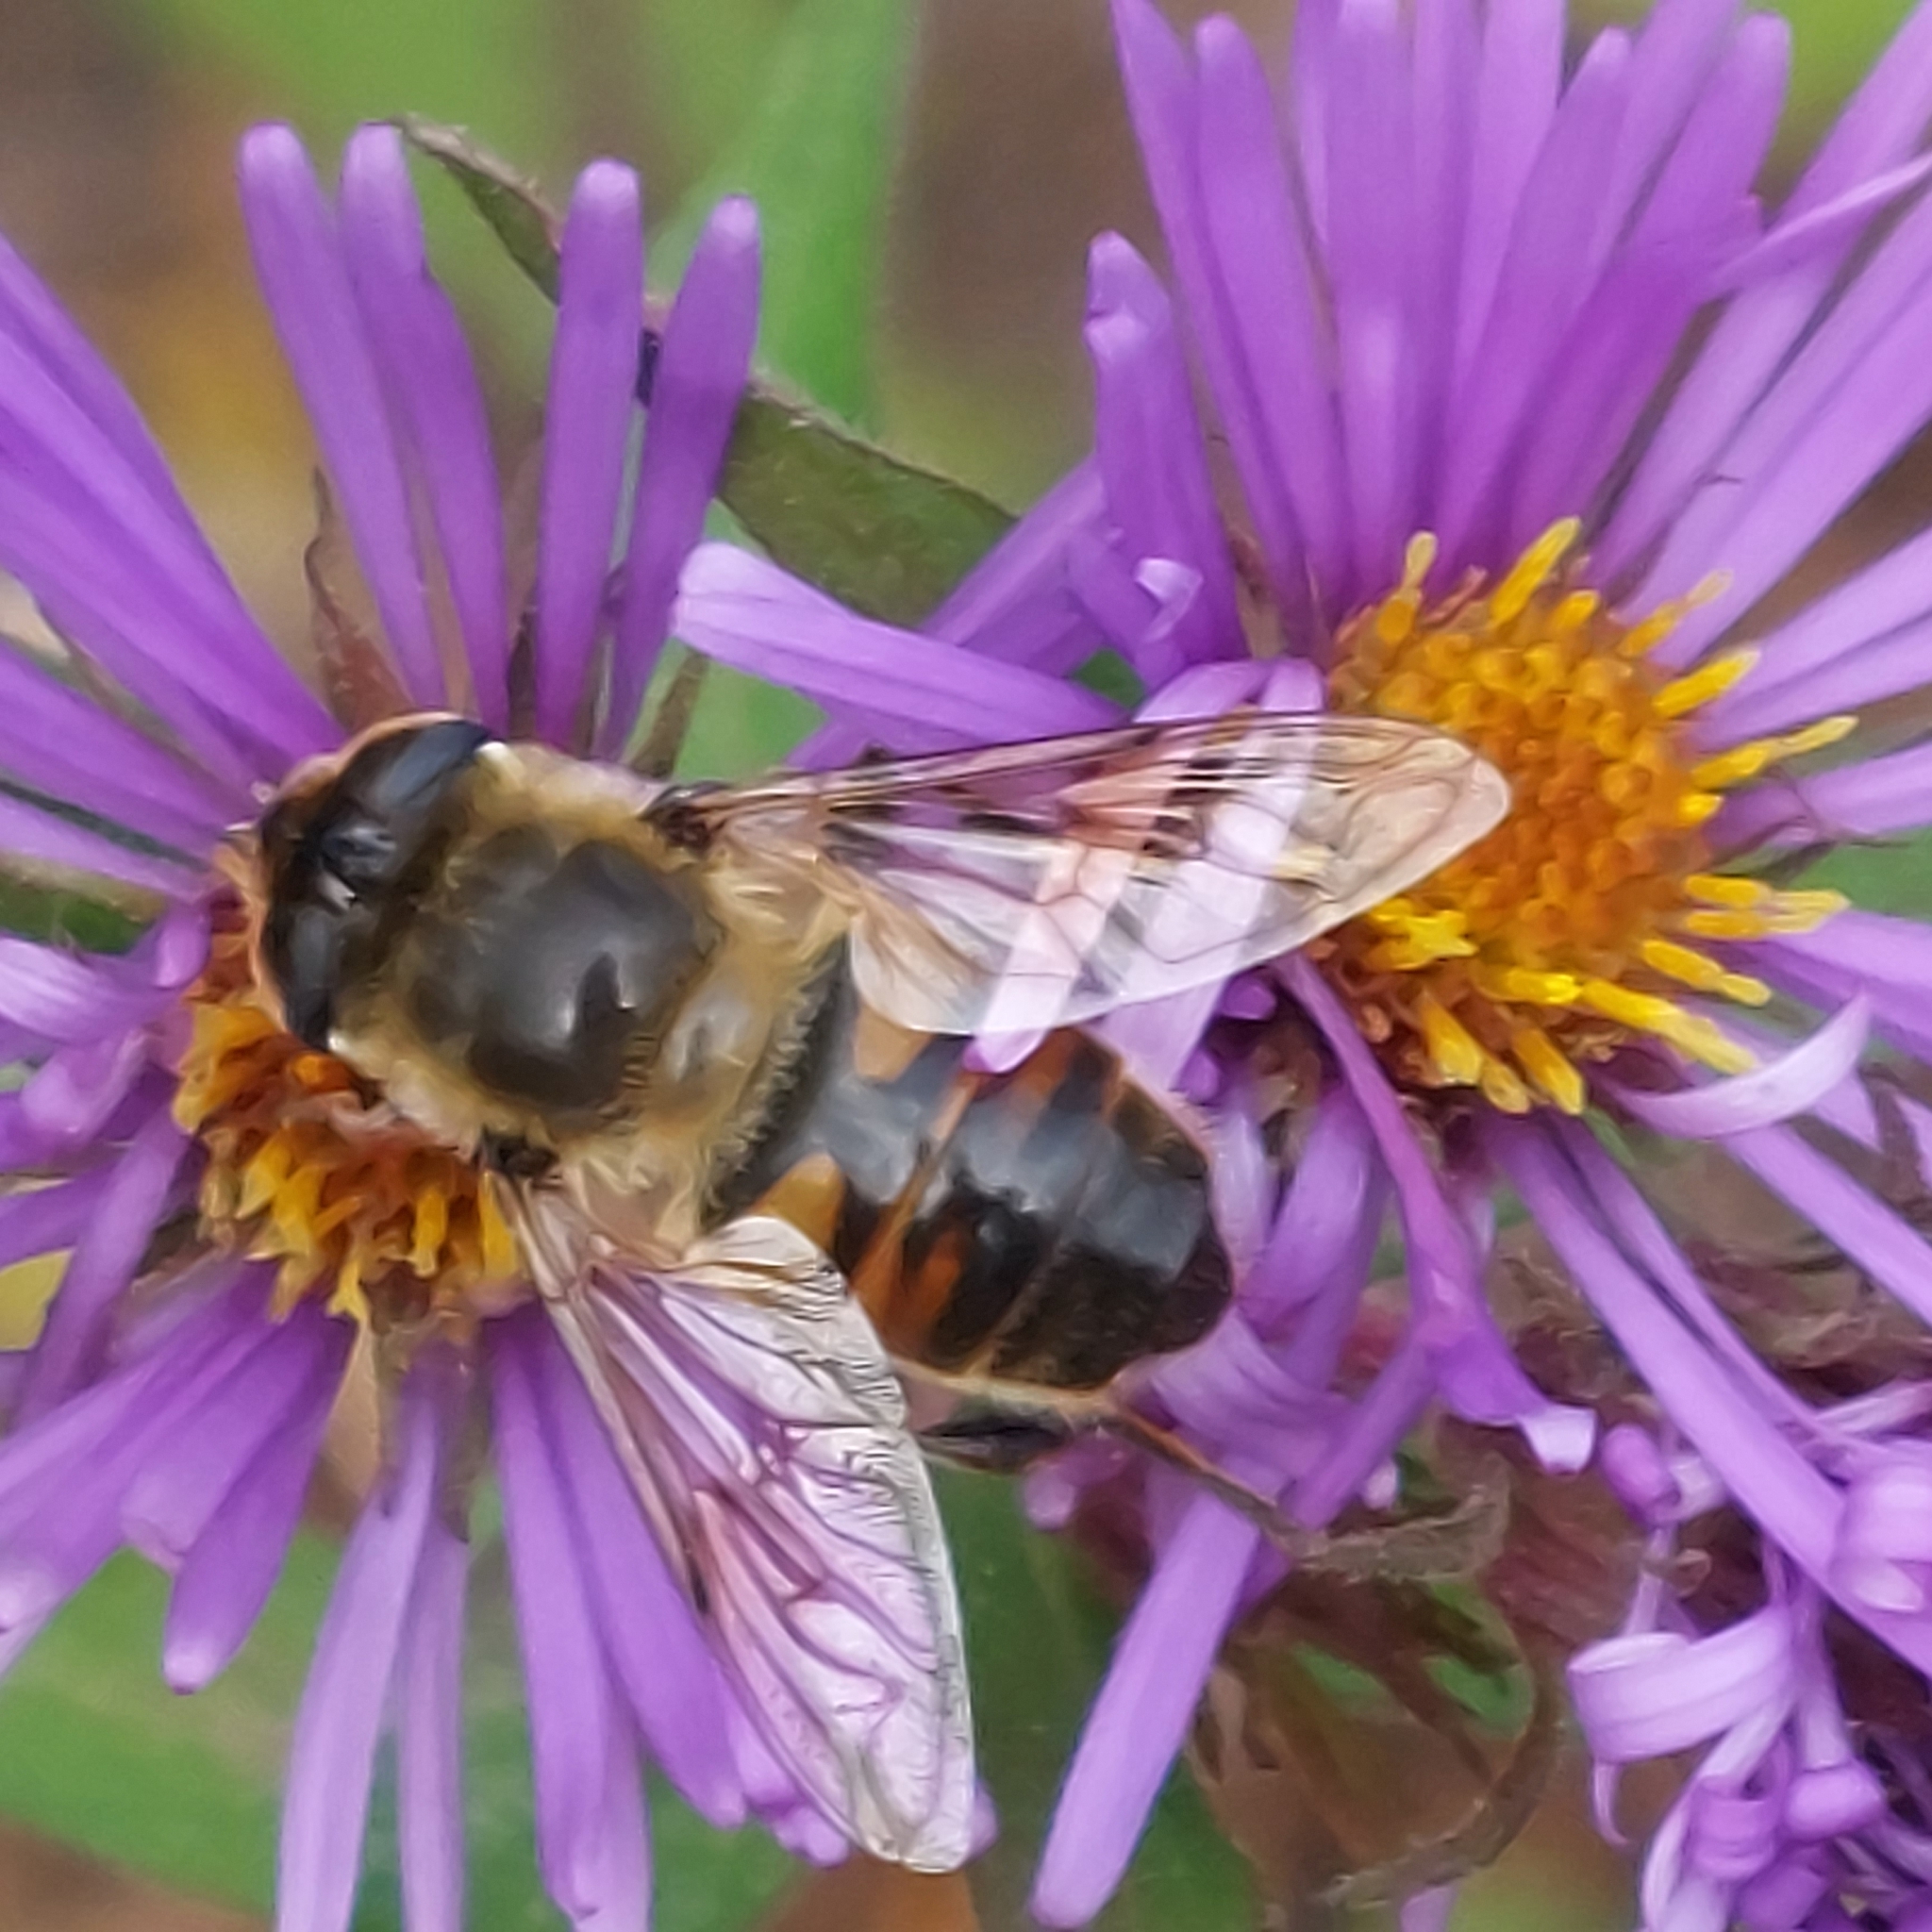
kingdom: Animalia
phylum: Arthropoda
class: Insecta
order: Diptera
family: Syrphidae
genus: Eristalis
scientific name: Eristalis tenax
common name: Drone fly
